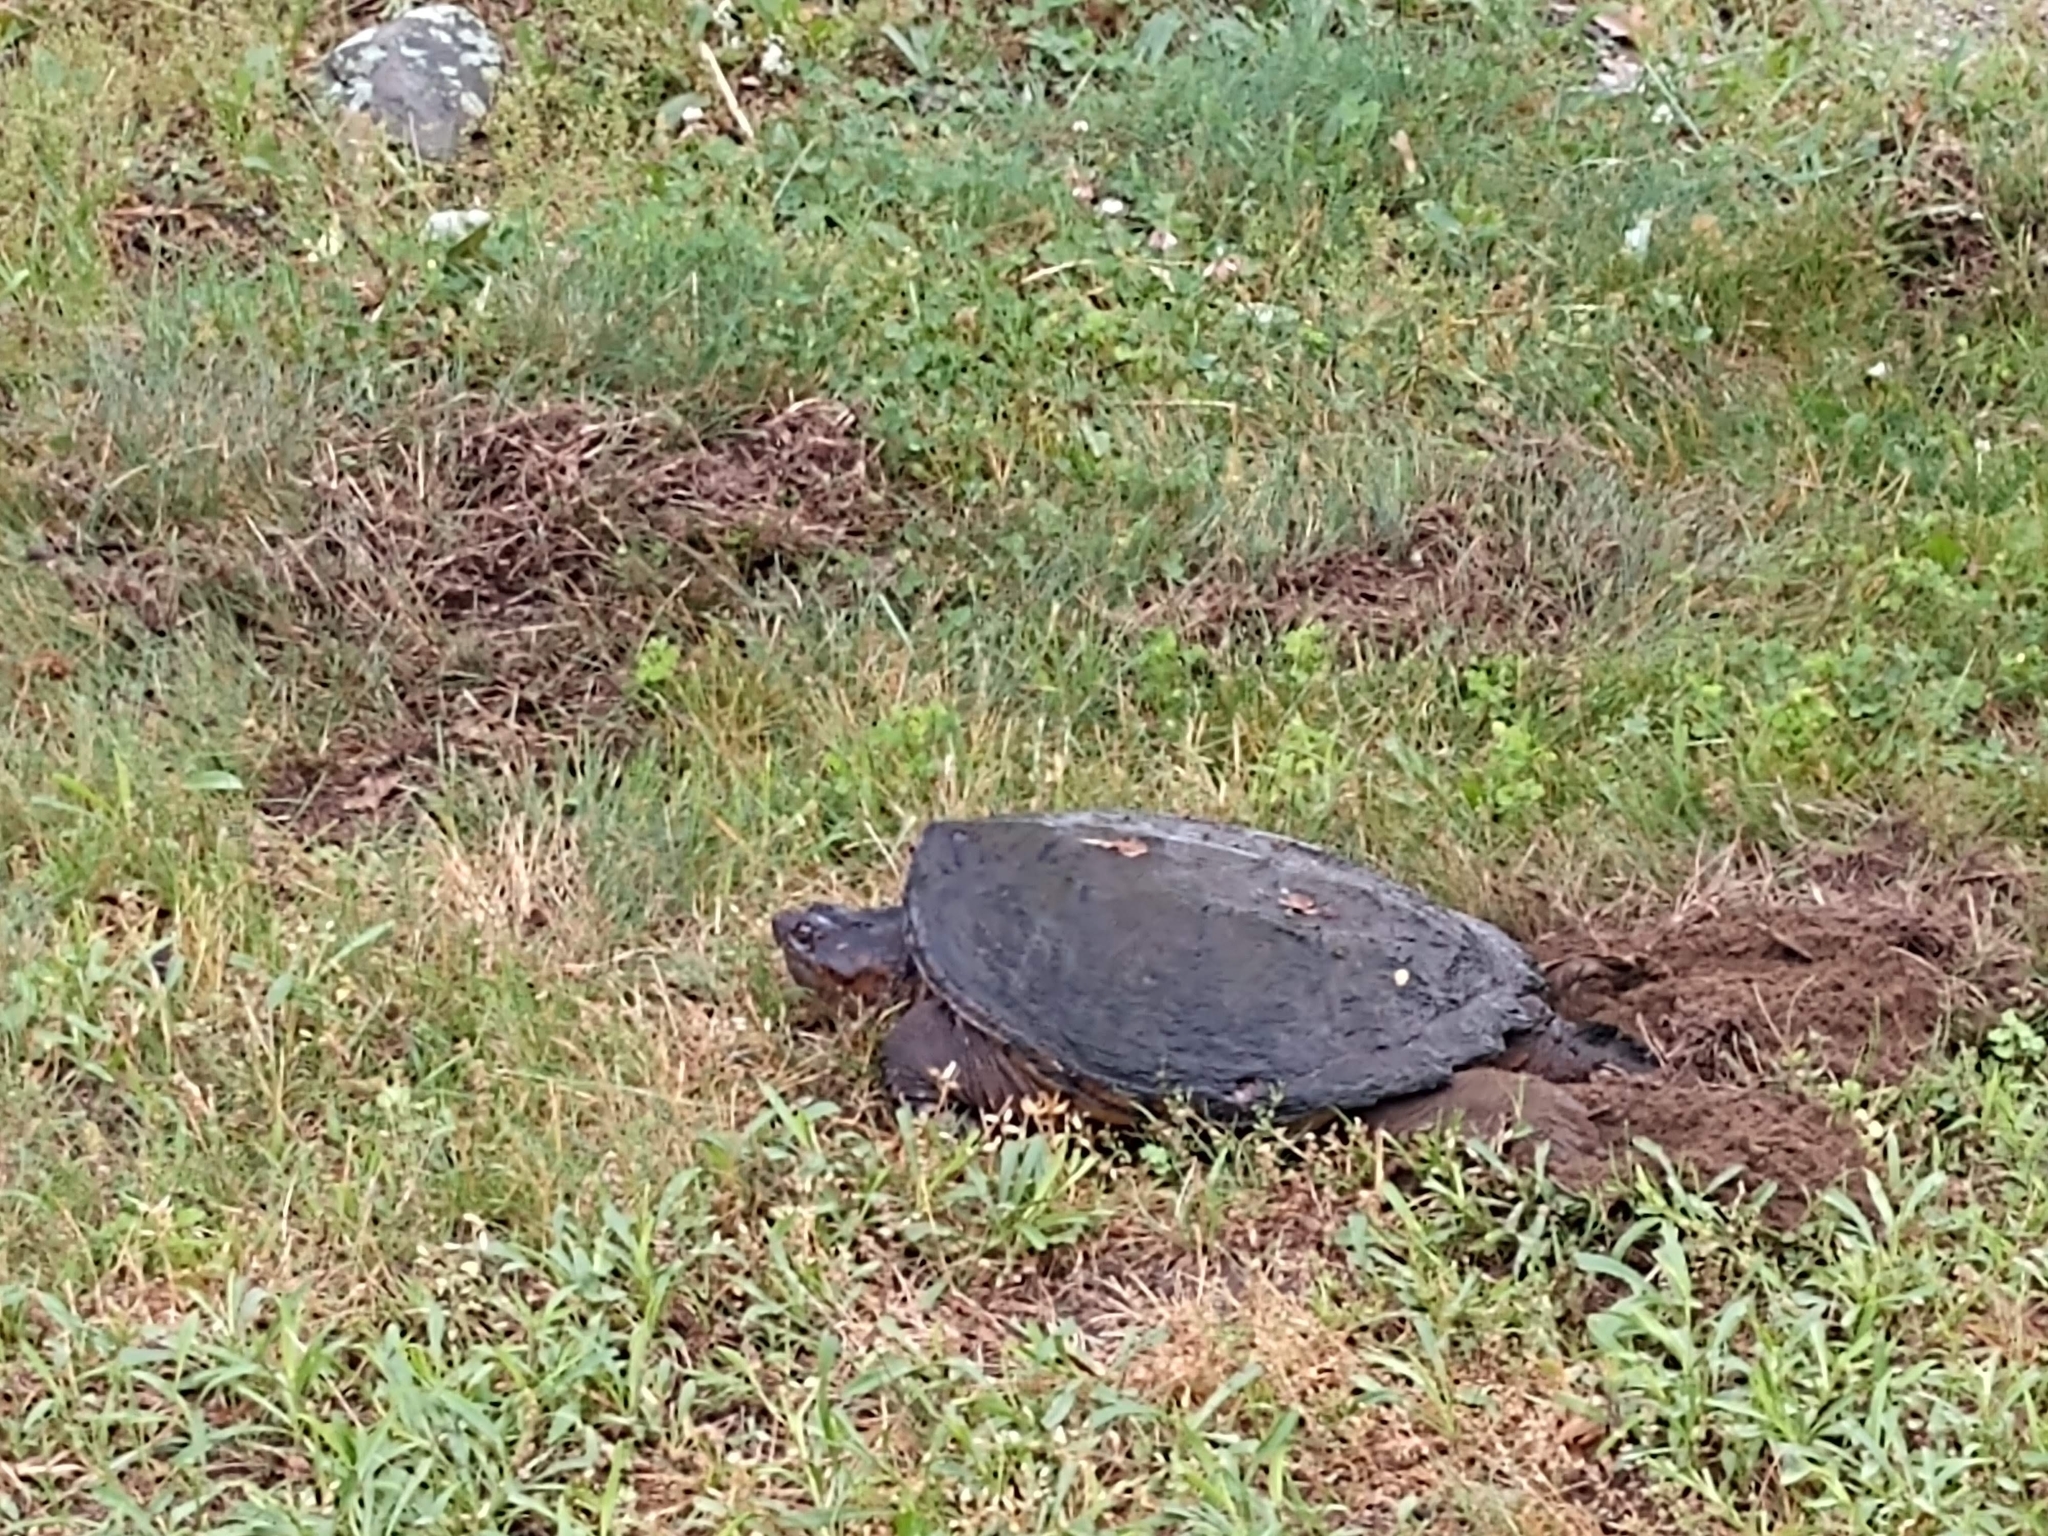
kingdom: Animalia
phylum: Chordata
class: Testudines
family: Chelydridae
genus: Chelydra
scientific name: Chelydra serpentina
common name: Common snapping turtle
